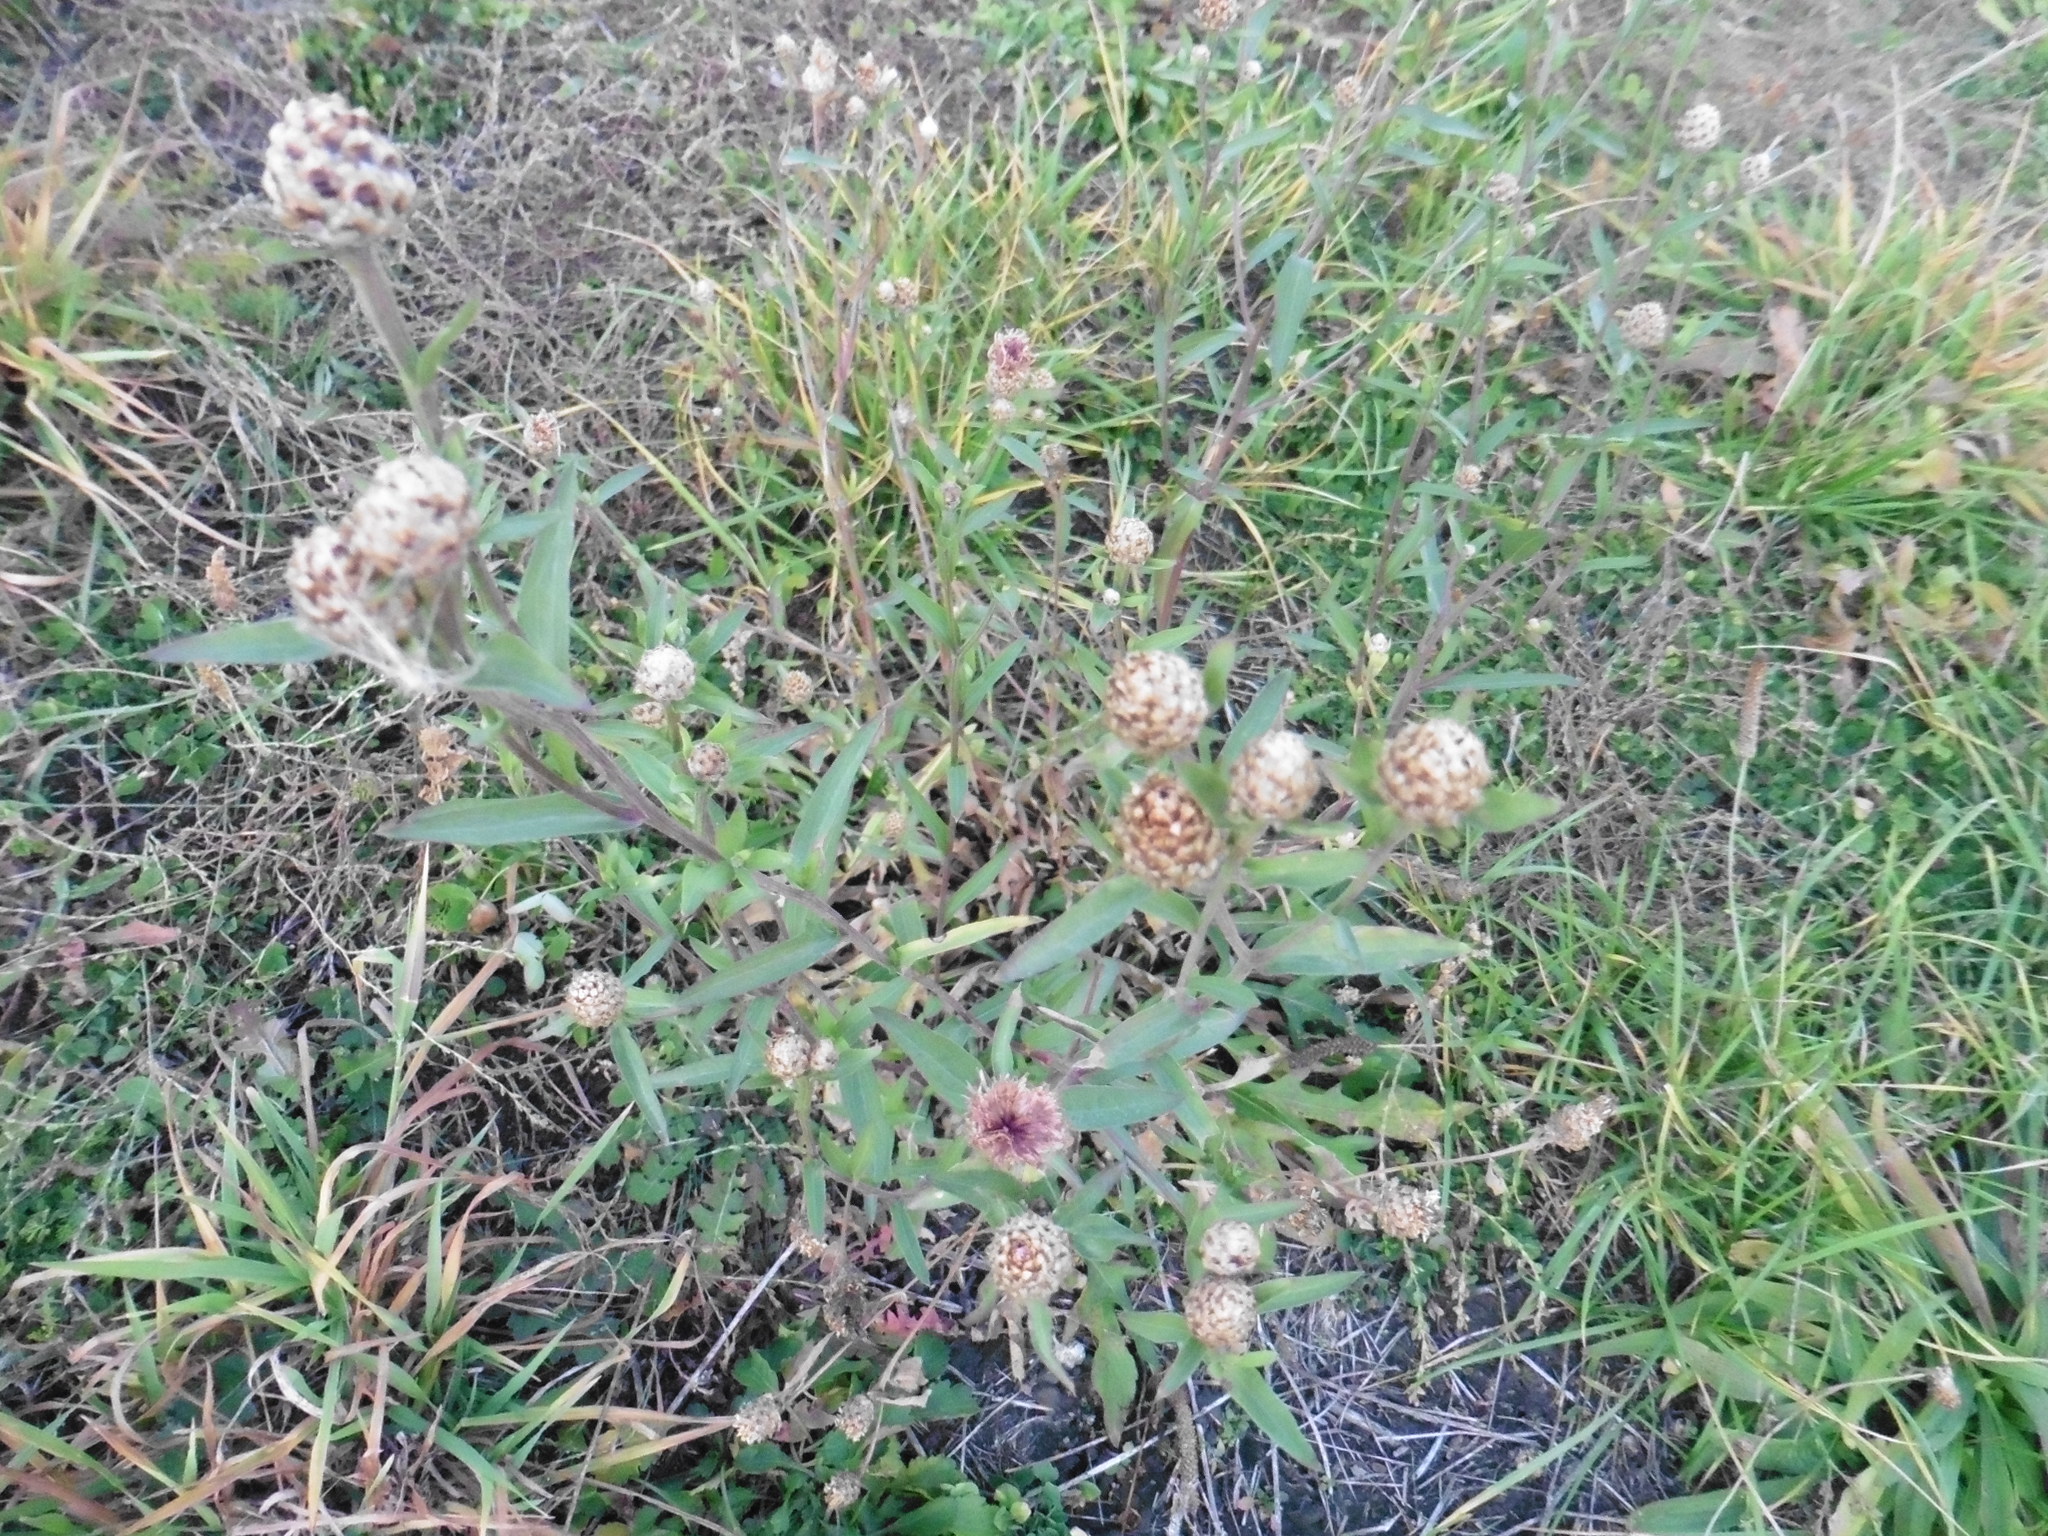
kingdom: Plantae
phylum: Tracheophyta
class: Magnoliopsida
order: Asterales
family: Asteraceae
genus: Centaurea
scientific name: Centaurea jacea
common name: Brown knapweed
